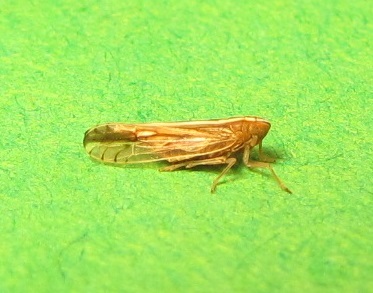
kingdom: Animalia
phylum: Arthropoda
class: Insecta
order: Hemiptera
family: Delphacidae
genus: Stenocranus
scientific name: Stenocranus dorsalis
